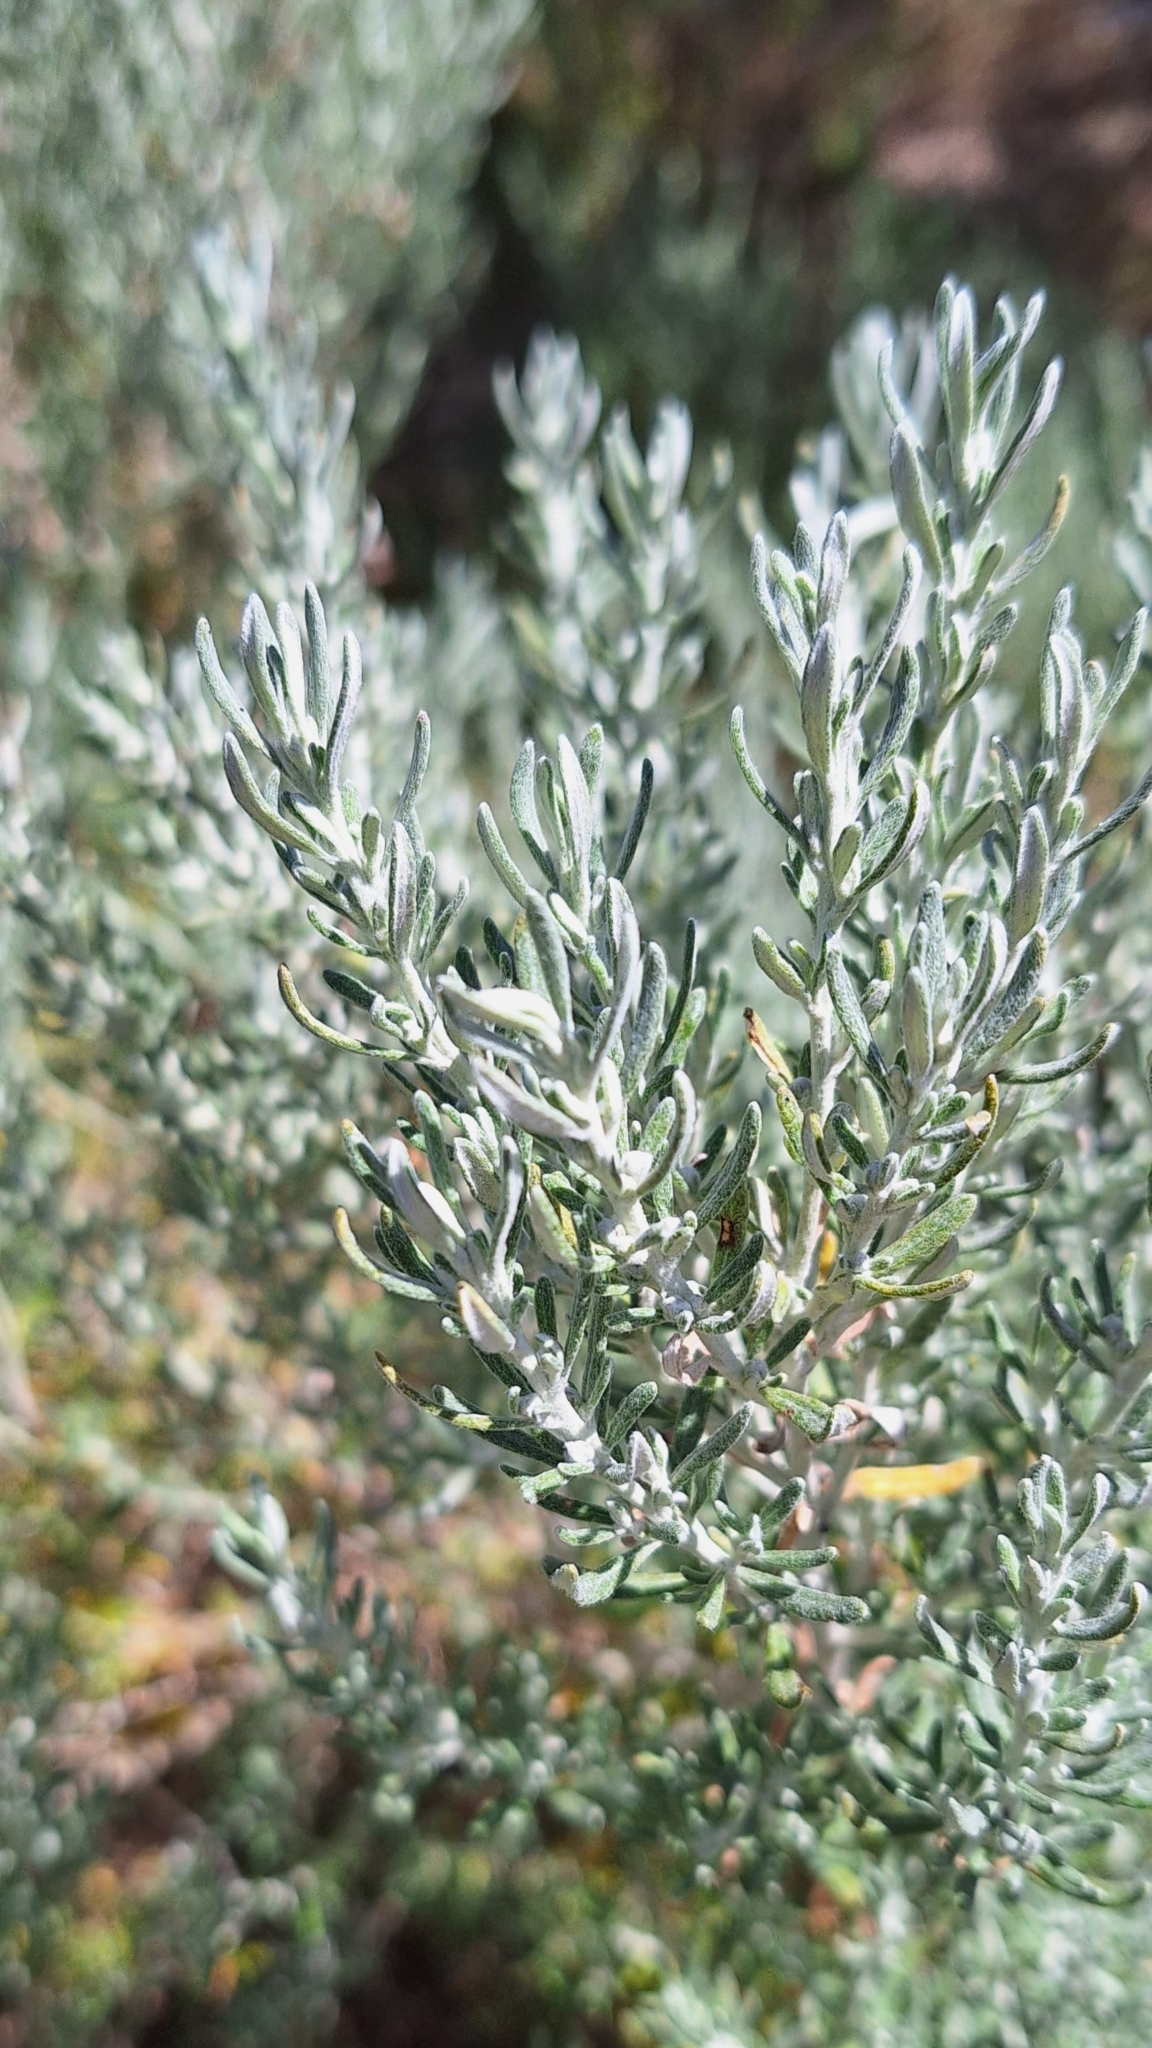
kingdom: Plantae
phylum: Tracheophyta
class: Magnoliopsida
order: Asterales
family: Asteraceae
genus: Olearia
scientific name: Olearia axillaris
